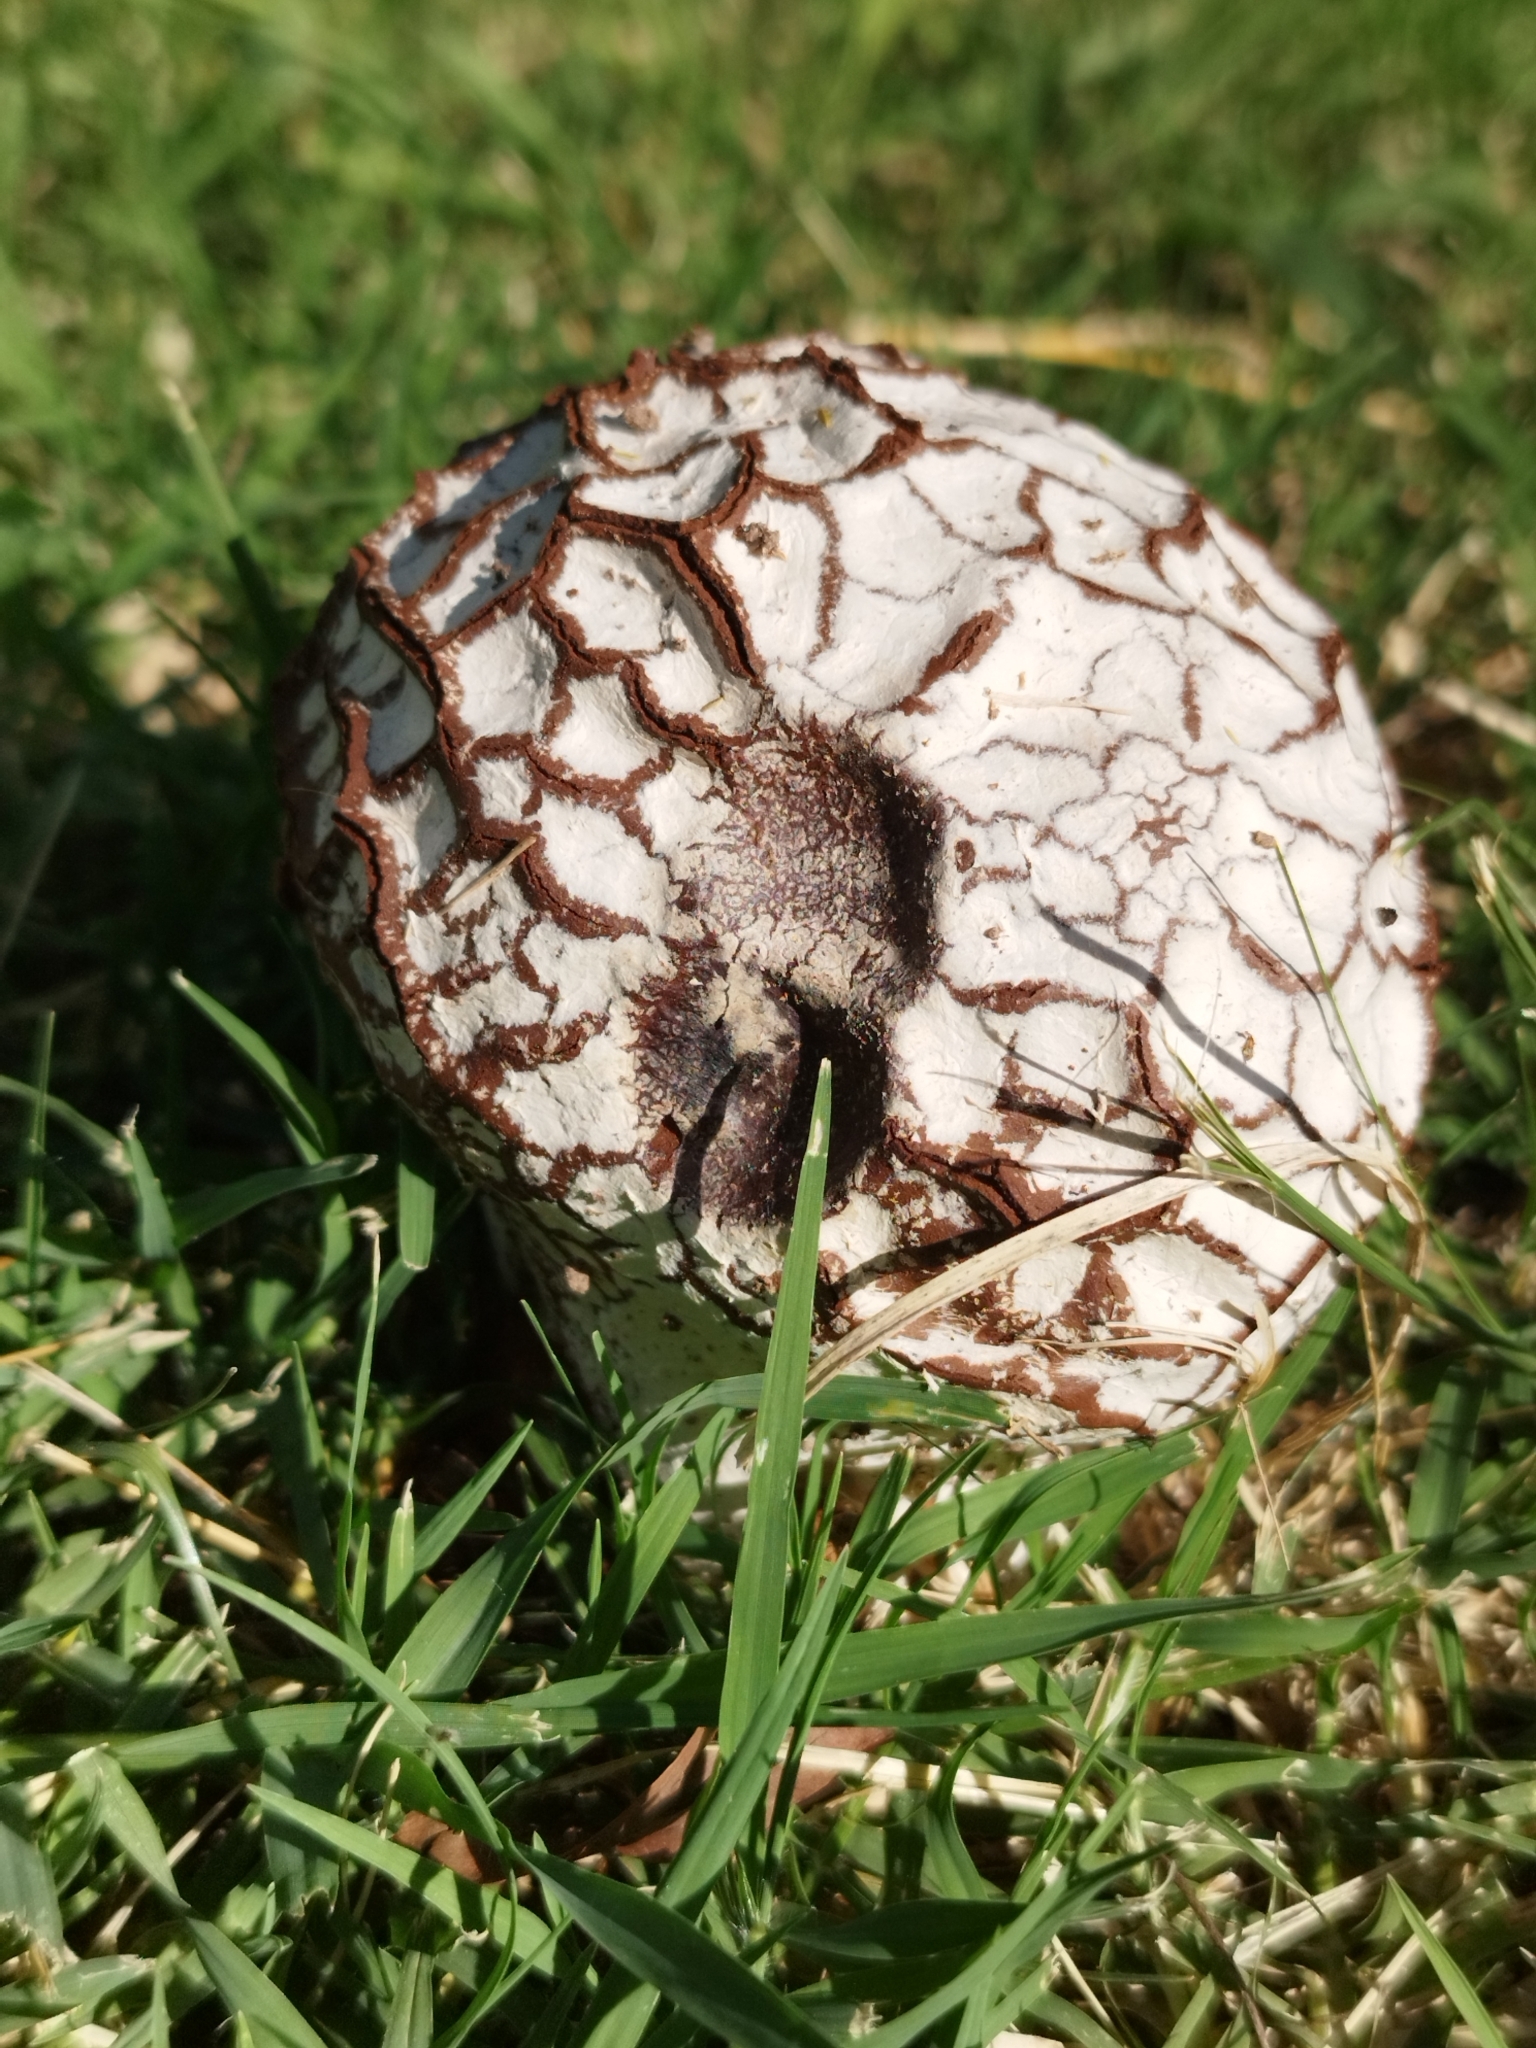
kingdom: Fungi
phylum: Basidiomycota
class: Agaricomycetes
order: Agaricales
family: Lycoperdaceae
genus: Calvatia
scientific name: Calvatia cyathiformis
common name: Purple-spored puffball
